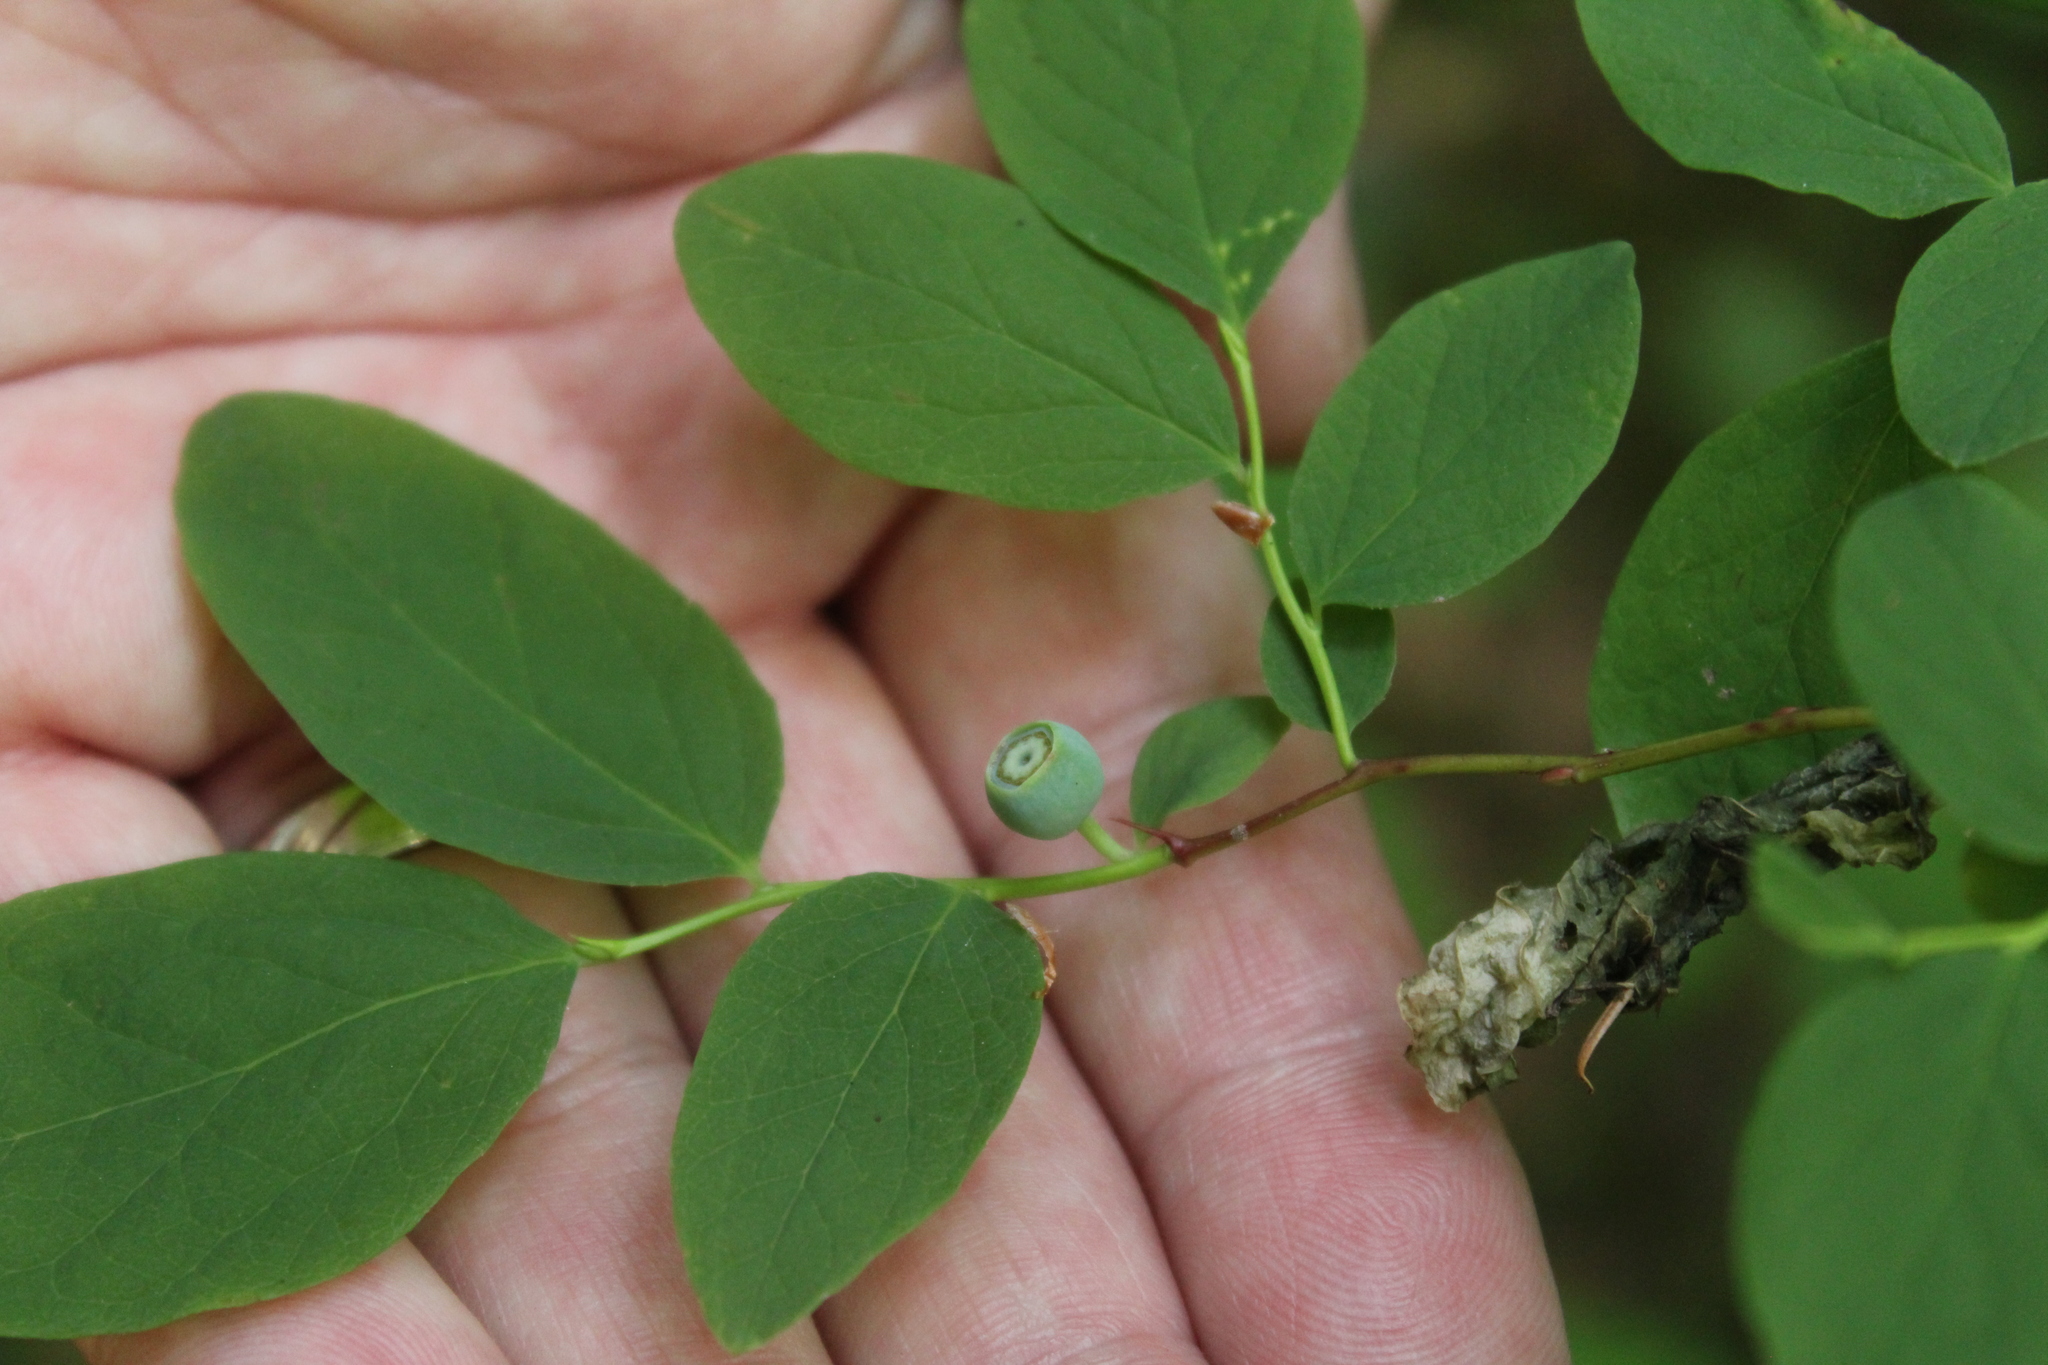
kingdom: Plantae
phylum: Tracheophyta
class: Magnoliopsida
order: Ericales
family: Ericaceae
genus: Vaccinium
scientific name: Vaccinium ovalifolium
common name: Early blueberry
